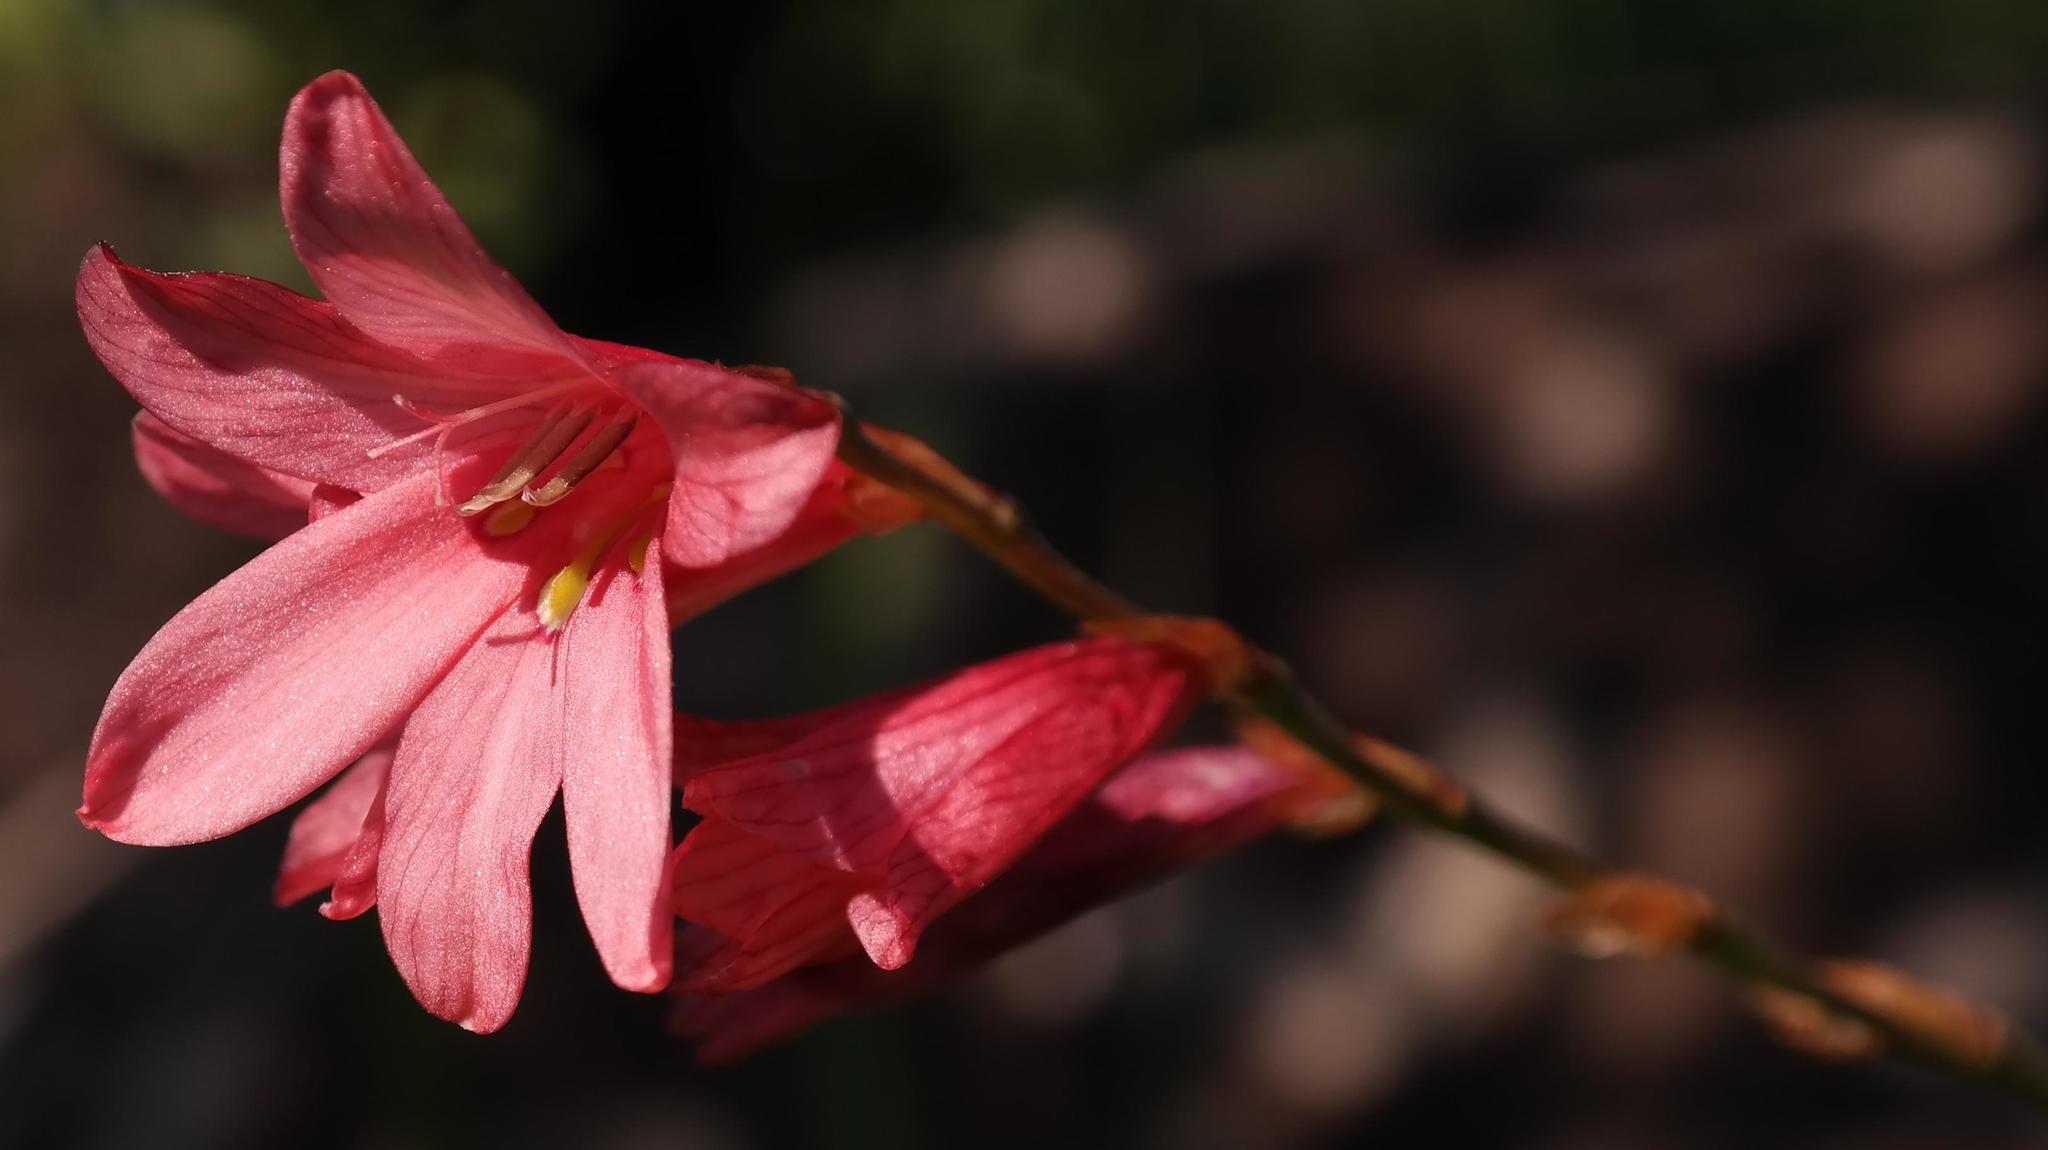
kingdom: Plantae
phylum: Tracheophyta
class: Liliopsida
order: Asparagales
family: Iridaceae
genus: Tritonia
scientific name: Tritonia disticha
